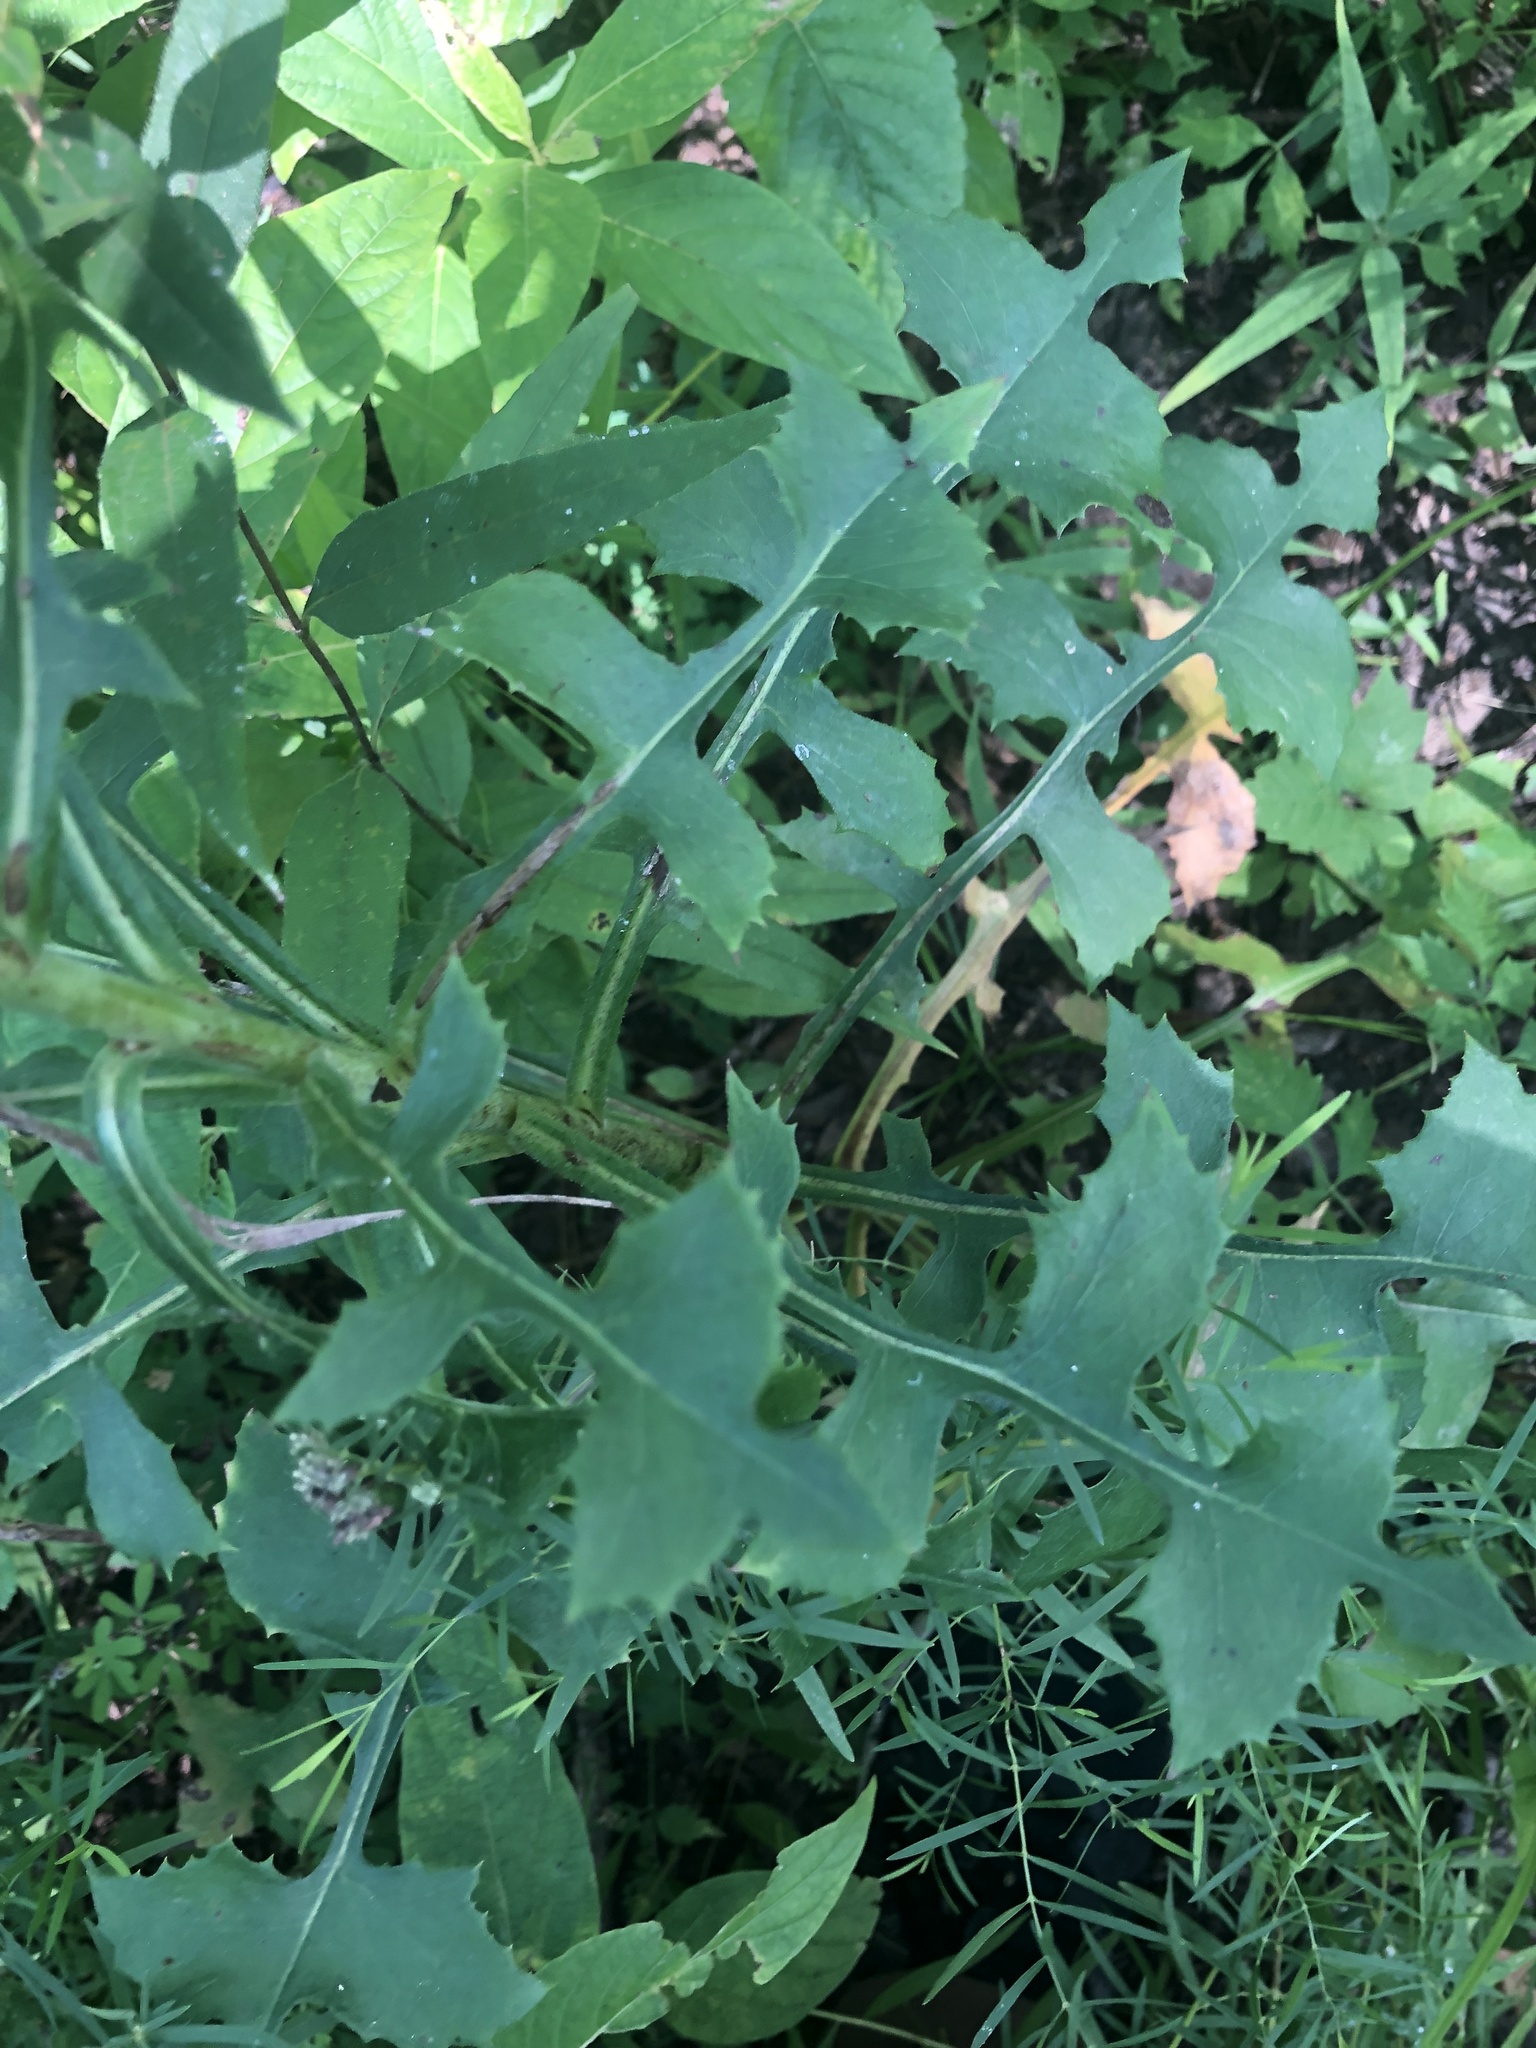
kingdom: Plantae
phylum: Tracheophyta
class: Magnoliopsida
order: Asterales
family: Asteraceae
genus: Lactuca
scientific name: Lactuca hirsuta
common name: Hairy lettuce
